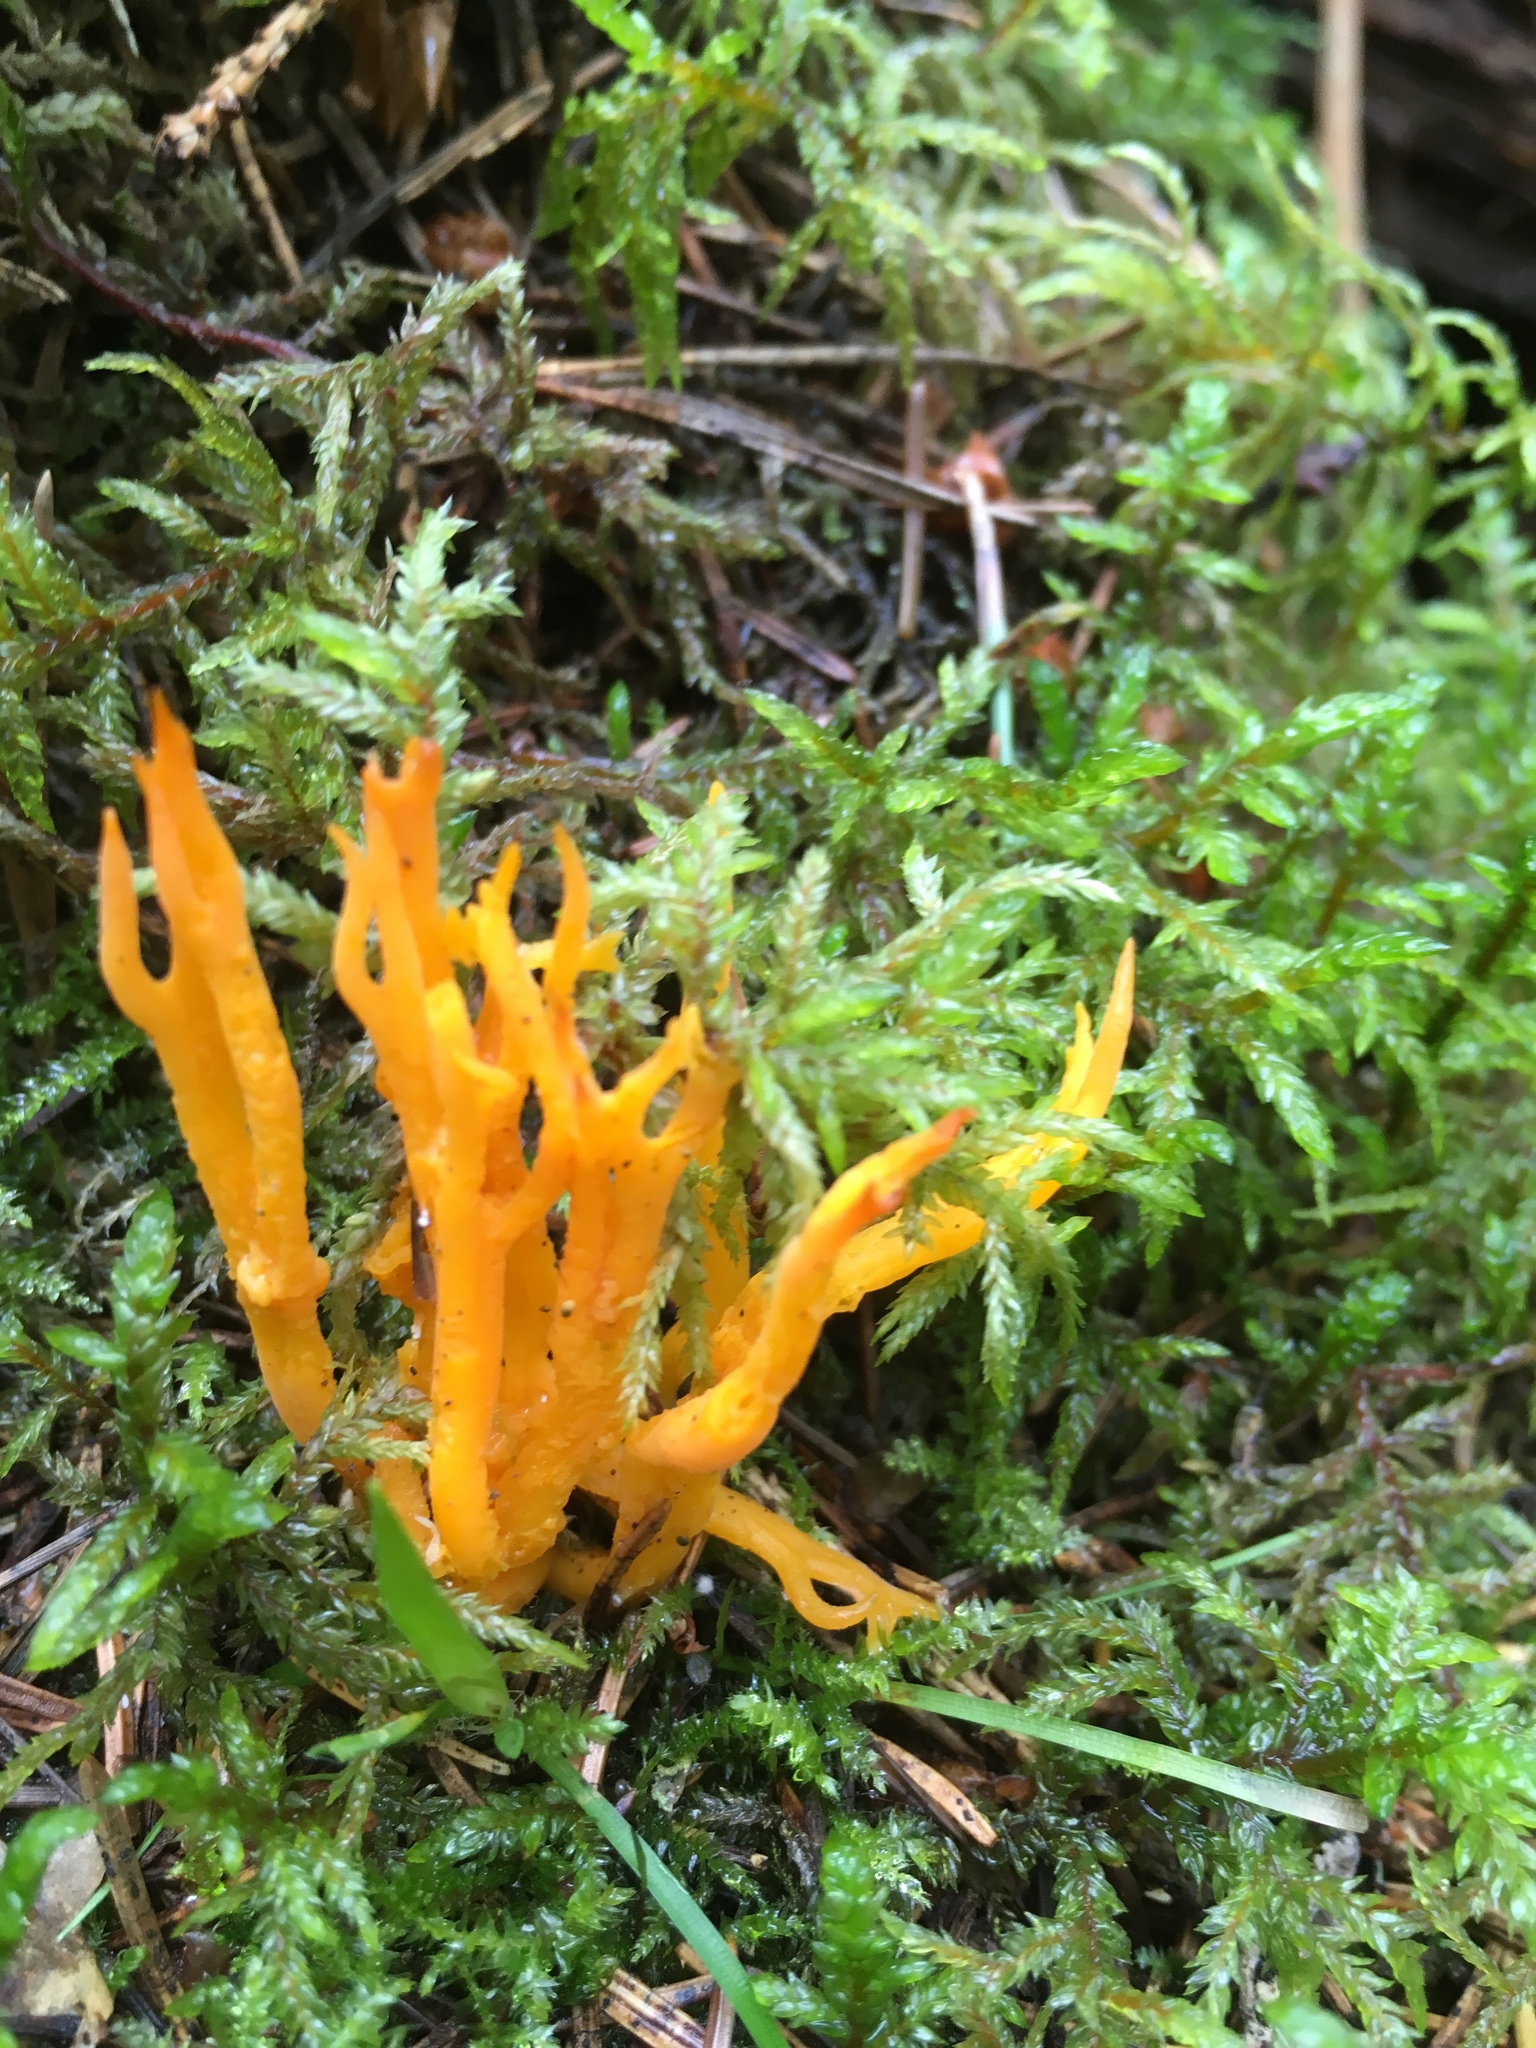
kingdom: Fungi
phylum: Basidiomycota
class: Dacrymycetes
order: Dacrymycetales
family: Dacrymycetaceae
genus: Calocera
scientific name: Calocera viscosa
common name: Yellow stagshorn
